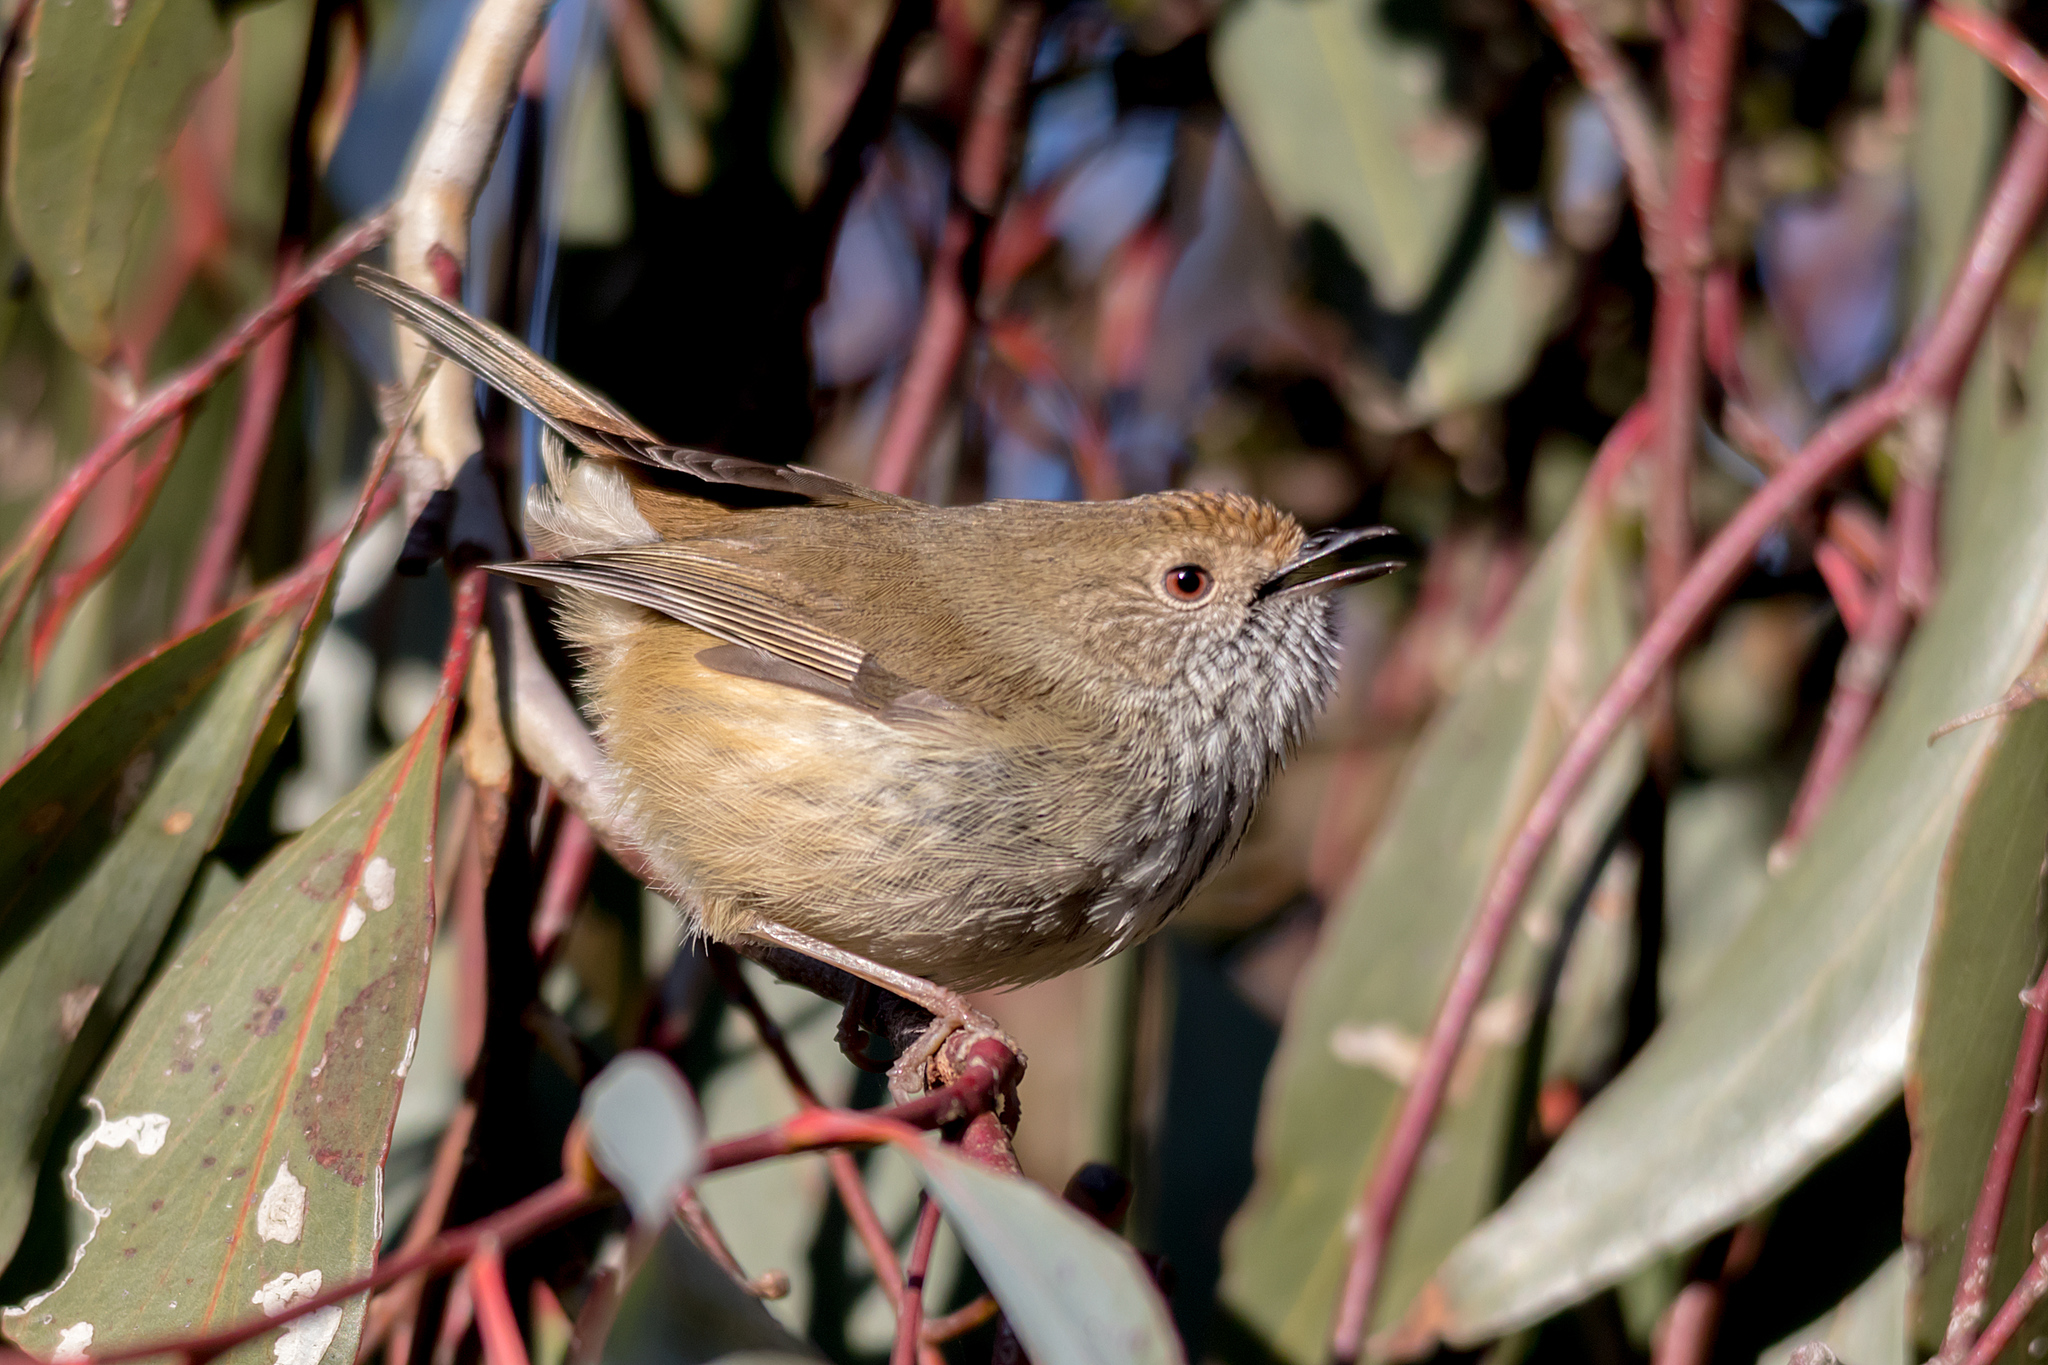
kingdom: Animalia
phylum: Chordata
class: Aves
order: Passeriformes
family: Acanthizidae
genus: Acanthiza
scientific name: Acanthiza pusilla
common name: Brown thornbill
